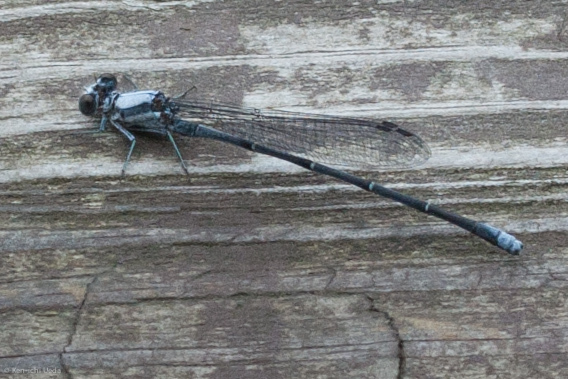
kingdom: Animalia
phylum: Arthropoda
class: Insecta
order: Odonata
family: Coenagrionidae
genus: Argia
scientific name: Argia moesta
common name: Powdered dancer
